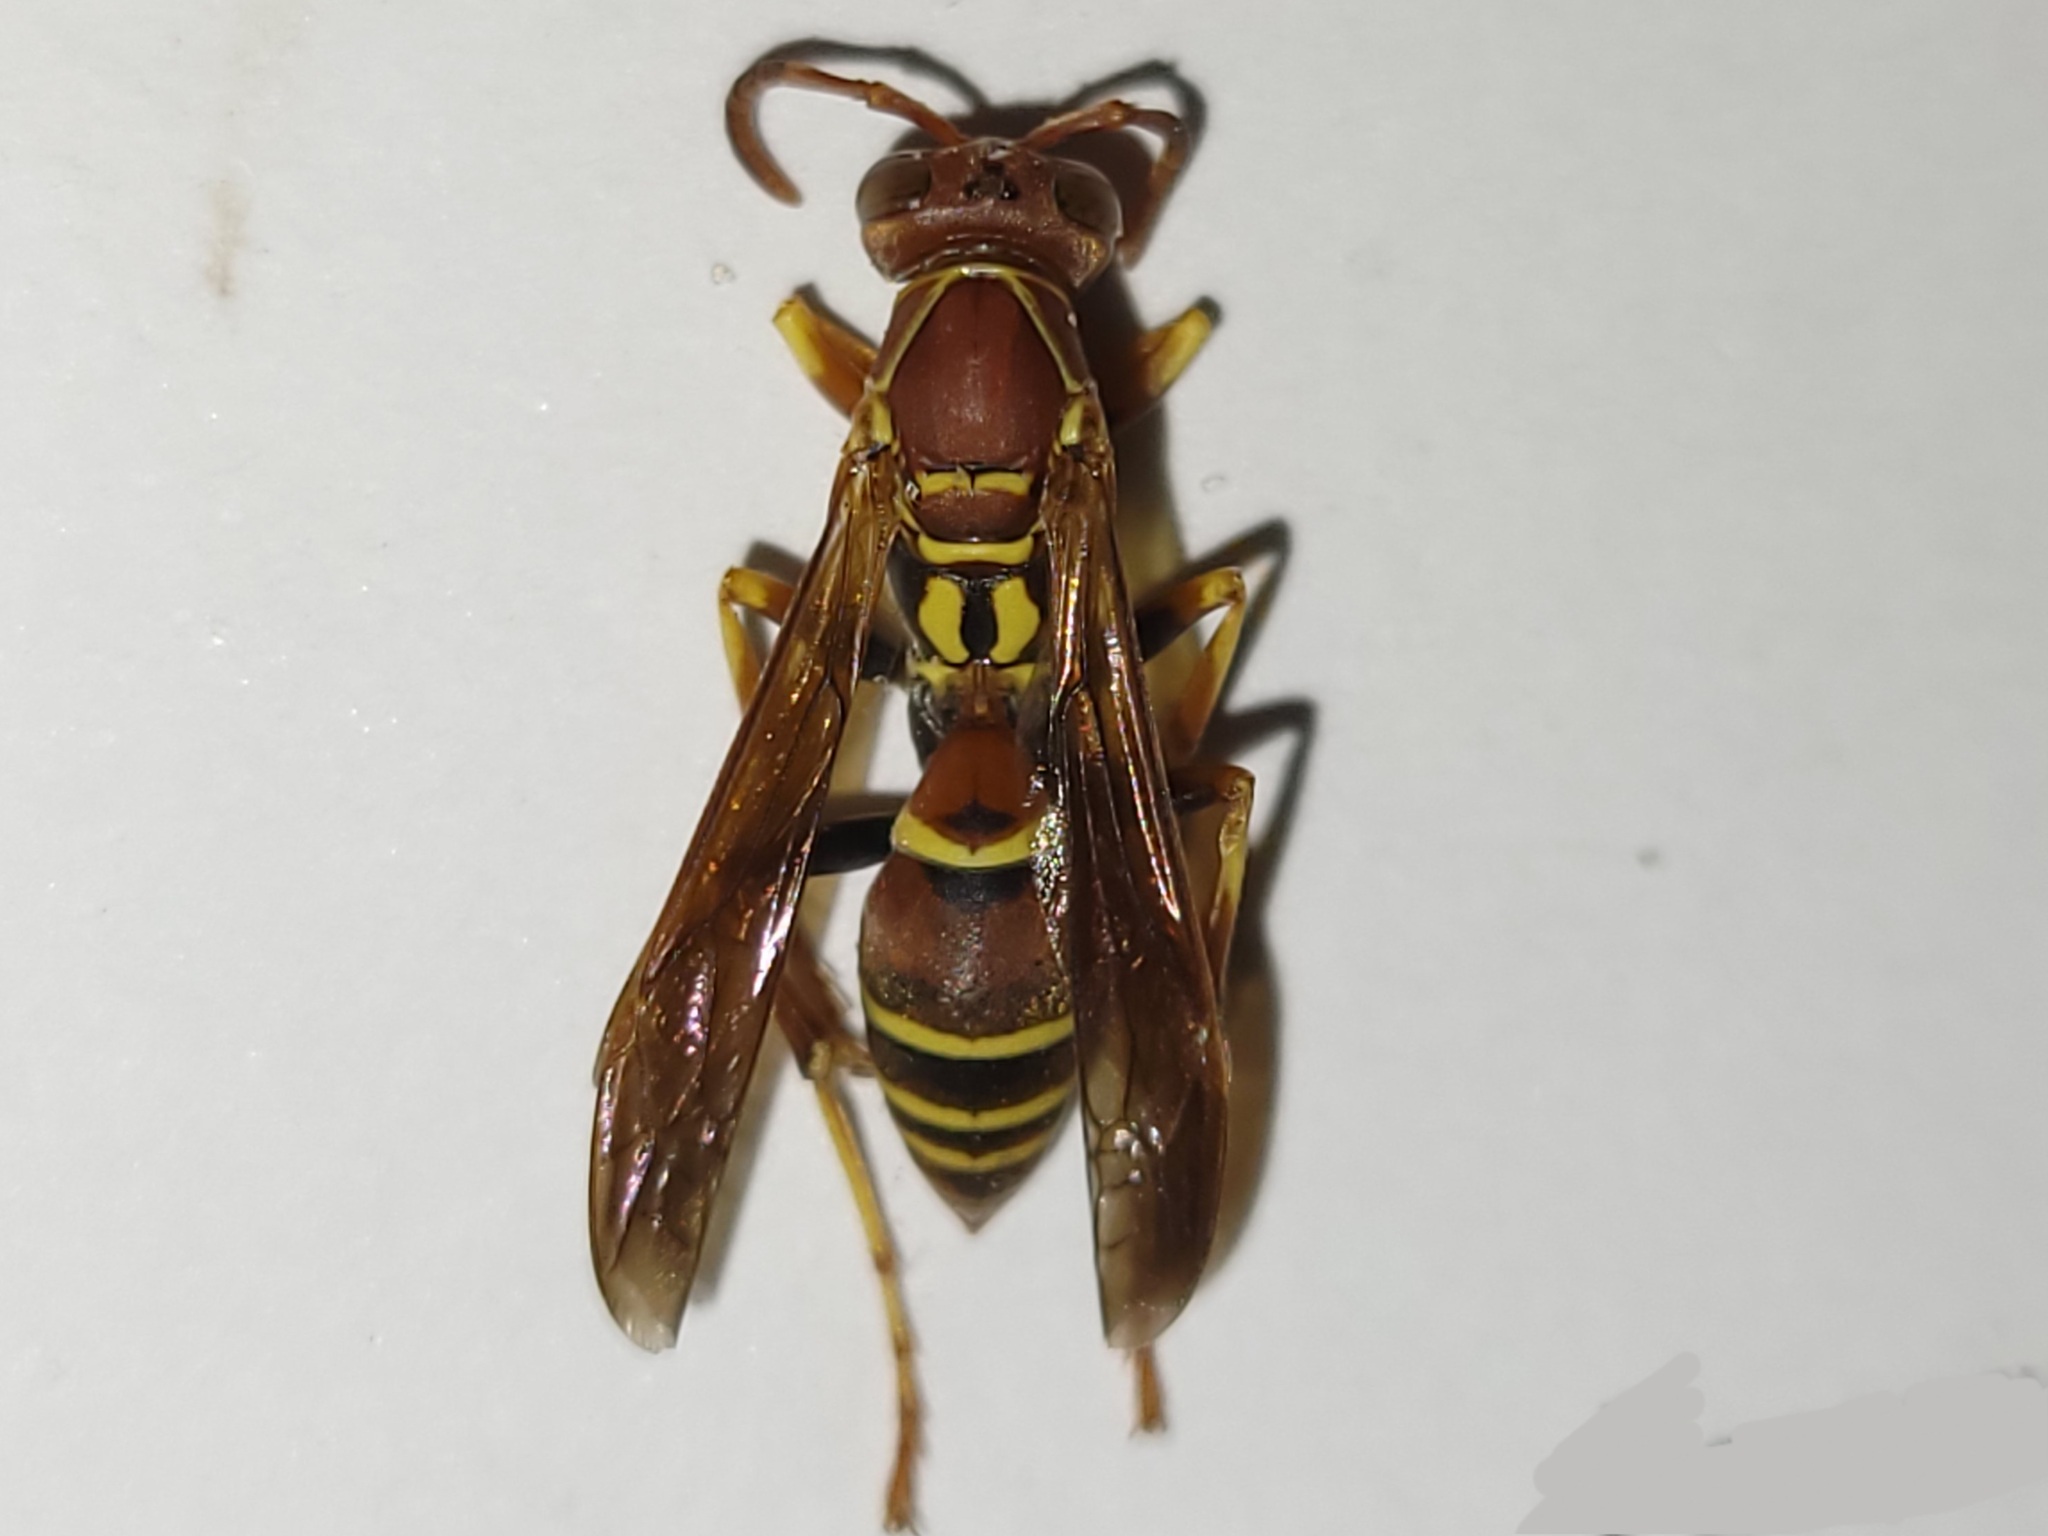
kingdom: Animalia
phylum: Arthropoda
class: Insecta
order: Hymenoptera
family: Eumenidae
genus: Polistes
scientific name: Polistes dorsalis
